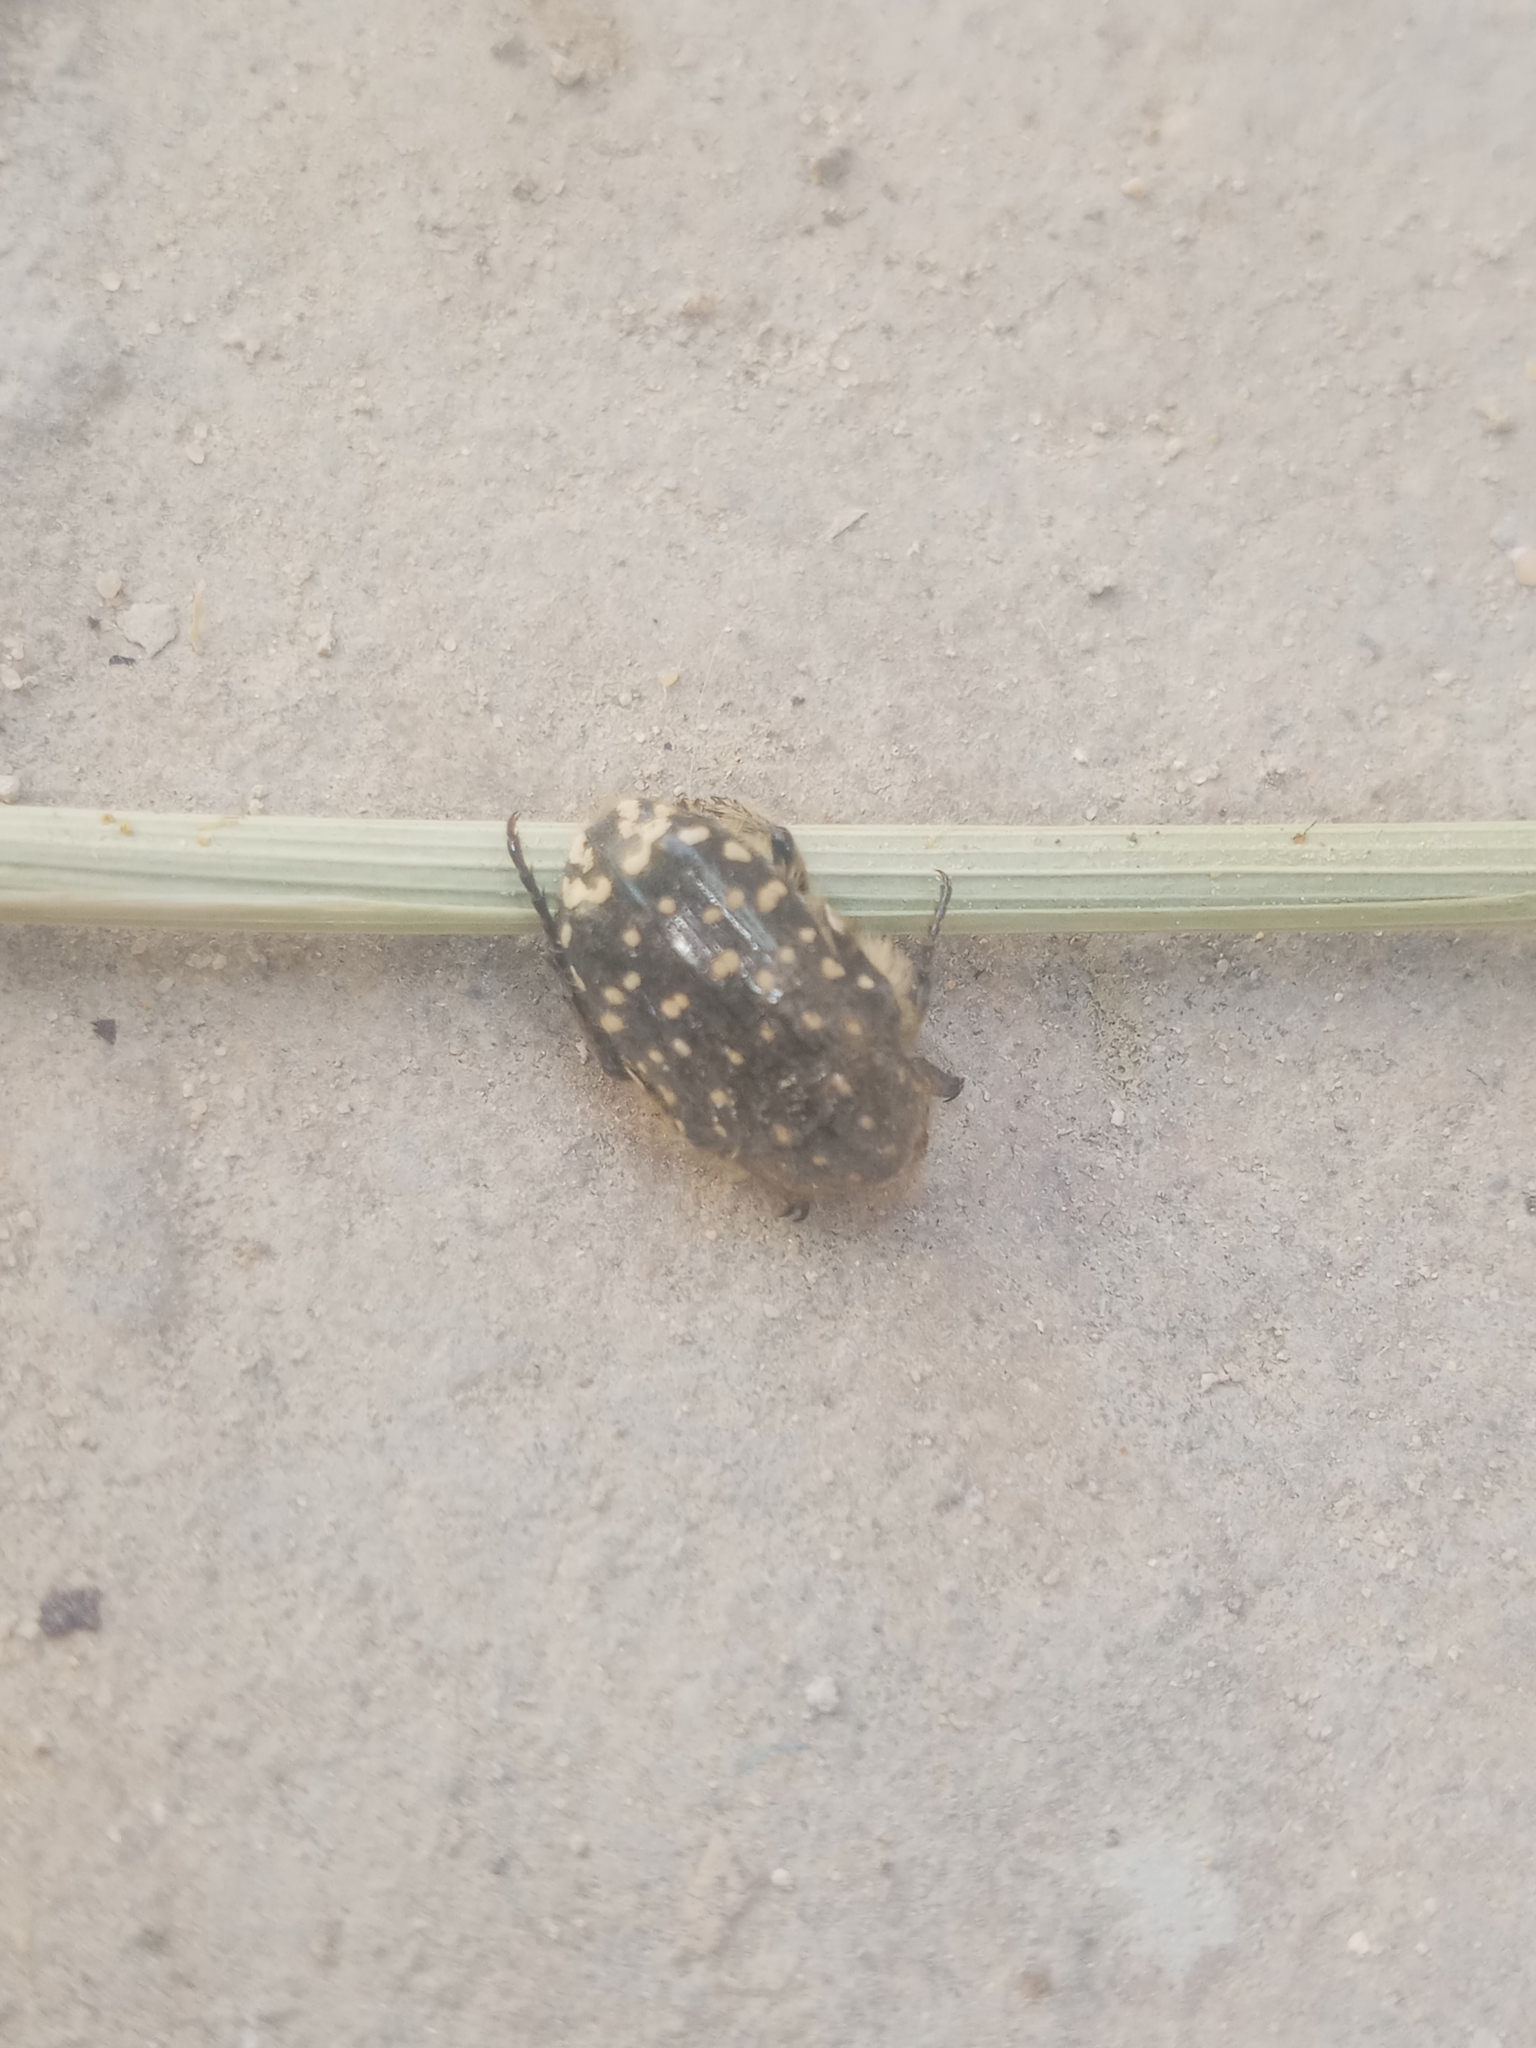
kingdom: Animalia
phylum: Arthropoda
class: Insecta
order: Coleoptera
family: Scarabaeidae
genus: Oxythyrea
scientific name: Oxythyrea funesta
